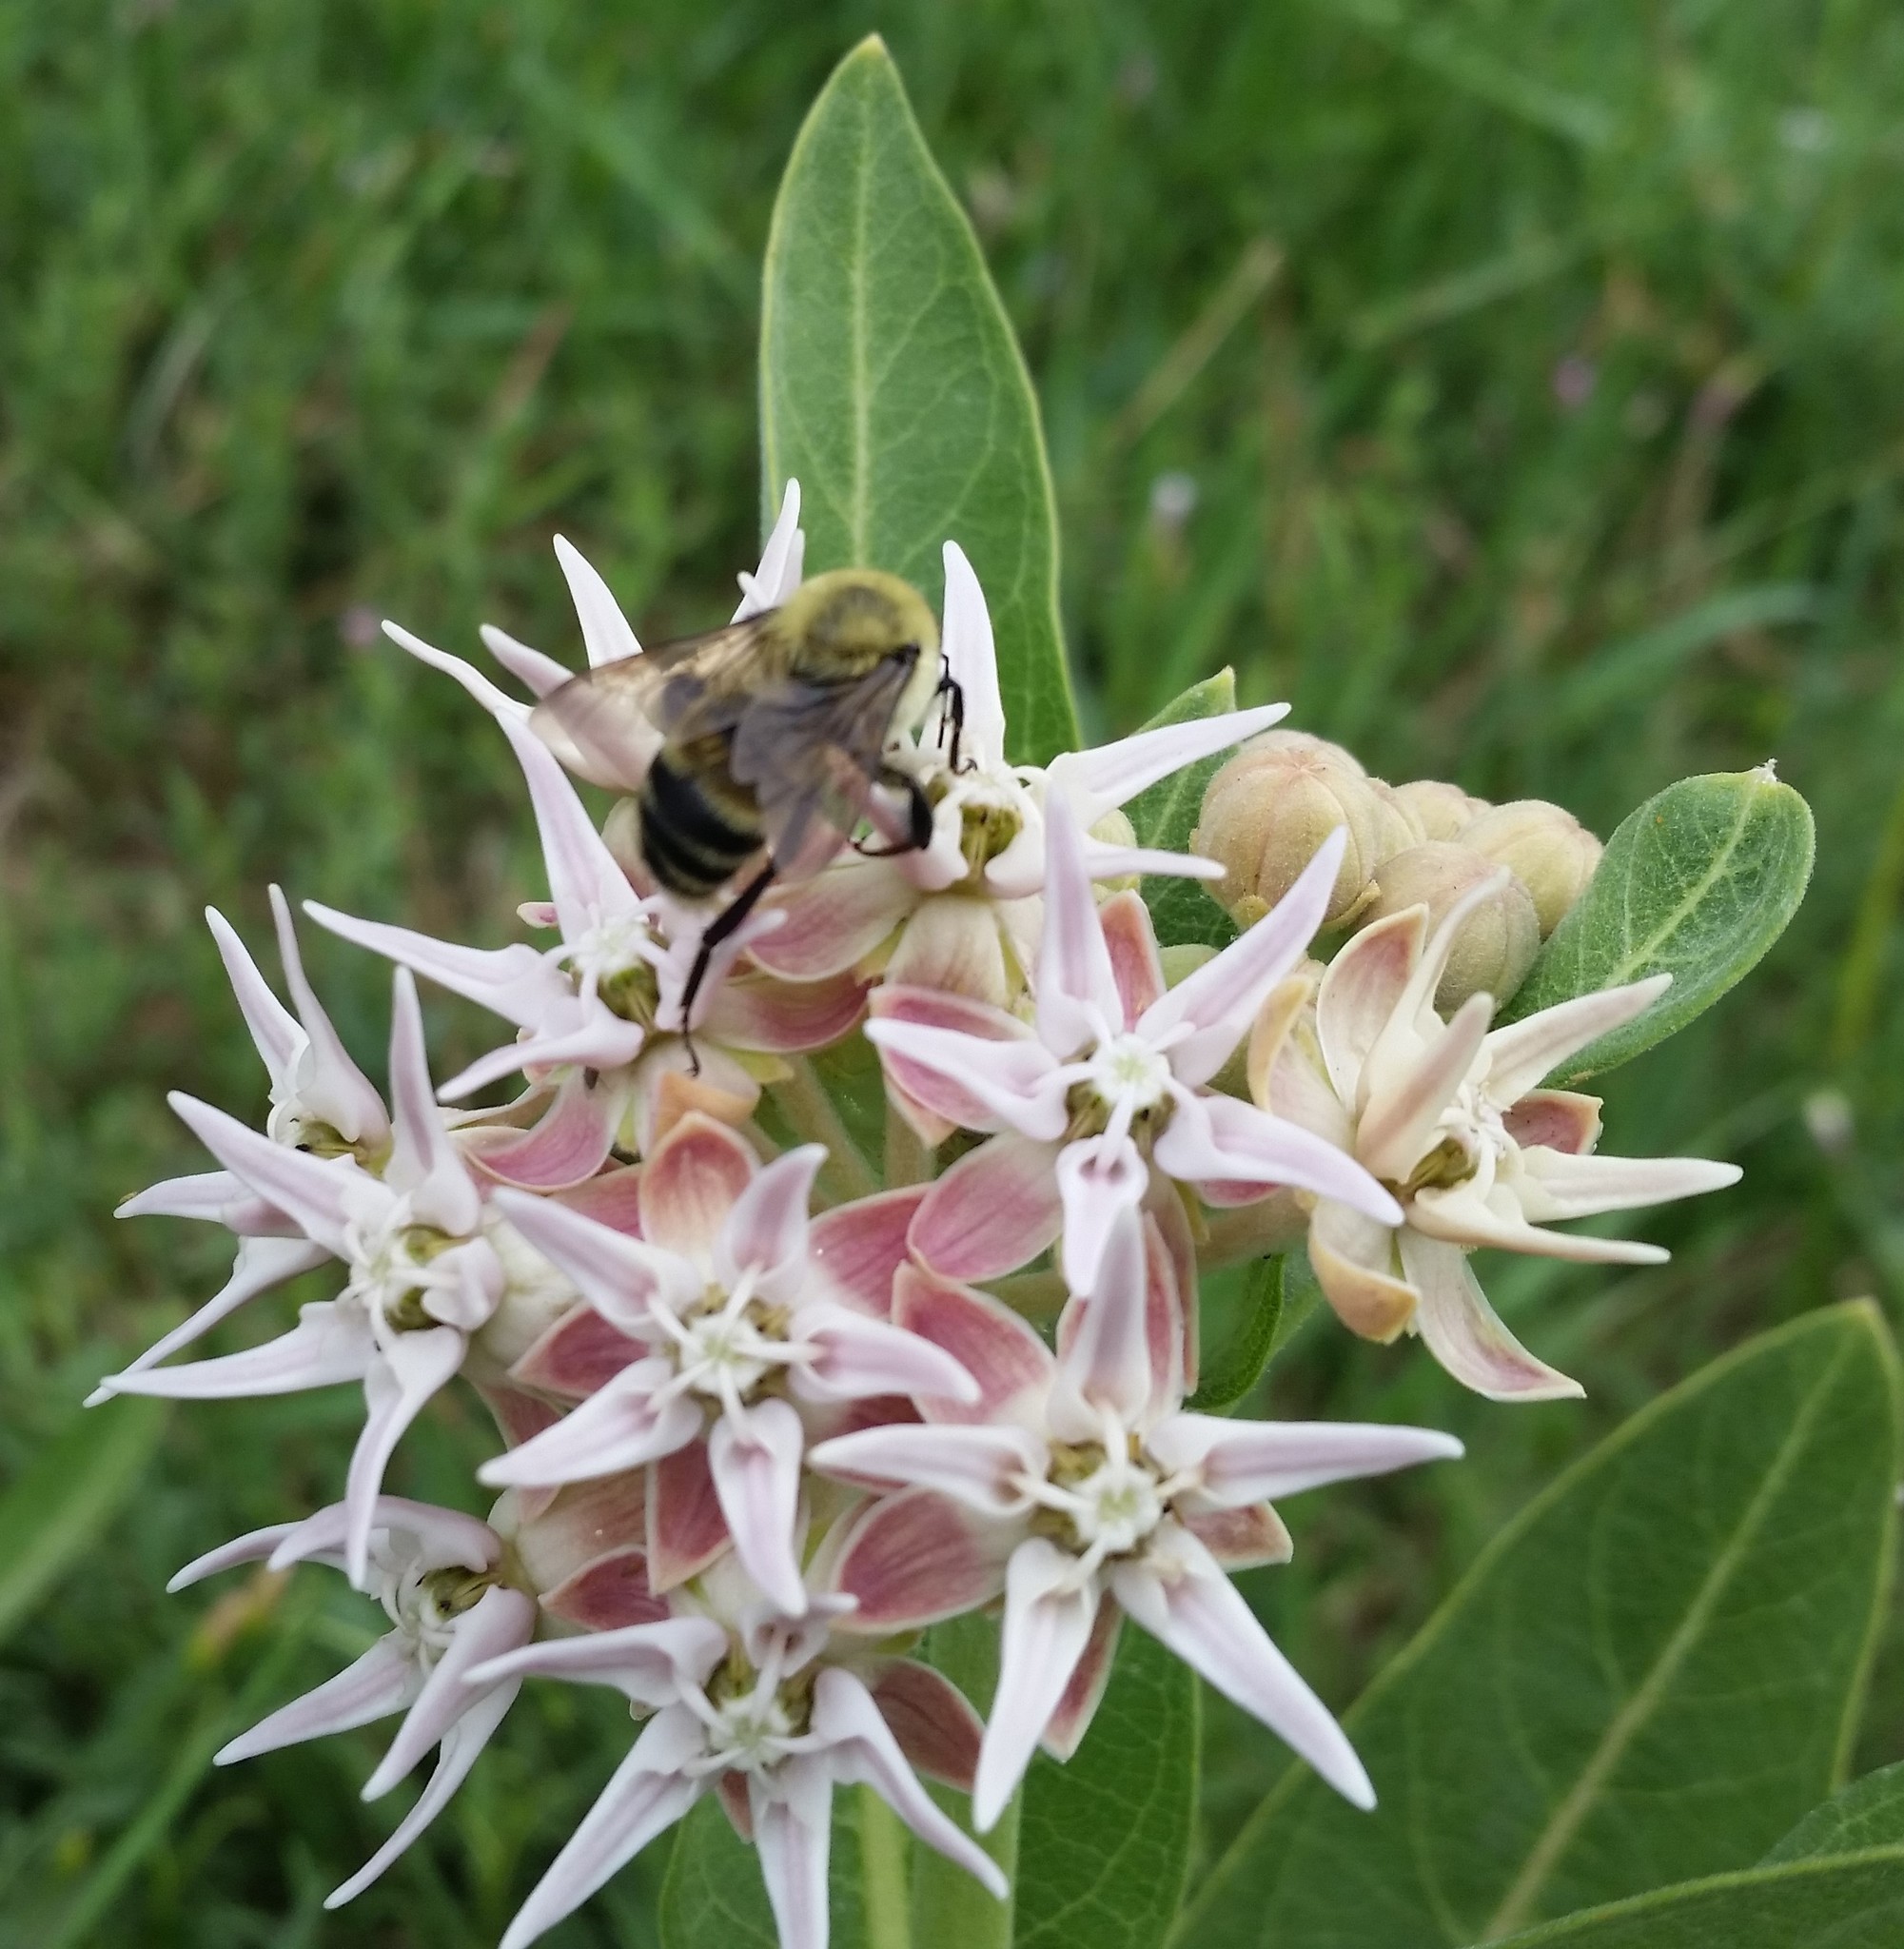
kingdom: Plantae
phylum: Tracheophyta
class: Magnoliopsida
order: Gentianales
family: Apocynaceae
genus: Asclepias
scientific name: Asclepias speciosa
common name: Showy milkweed
